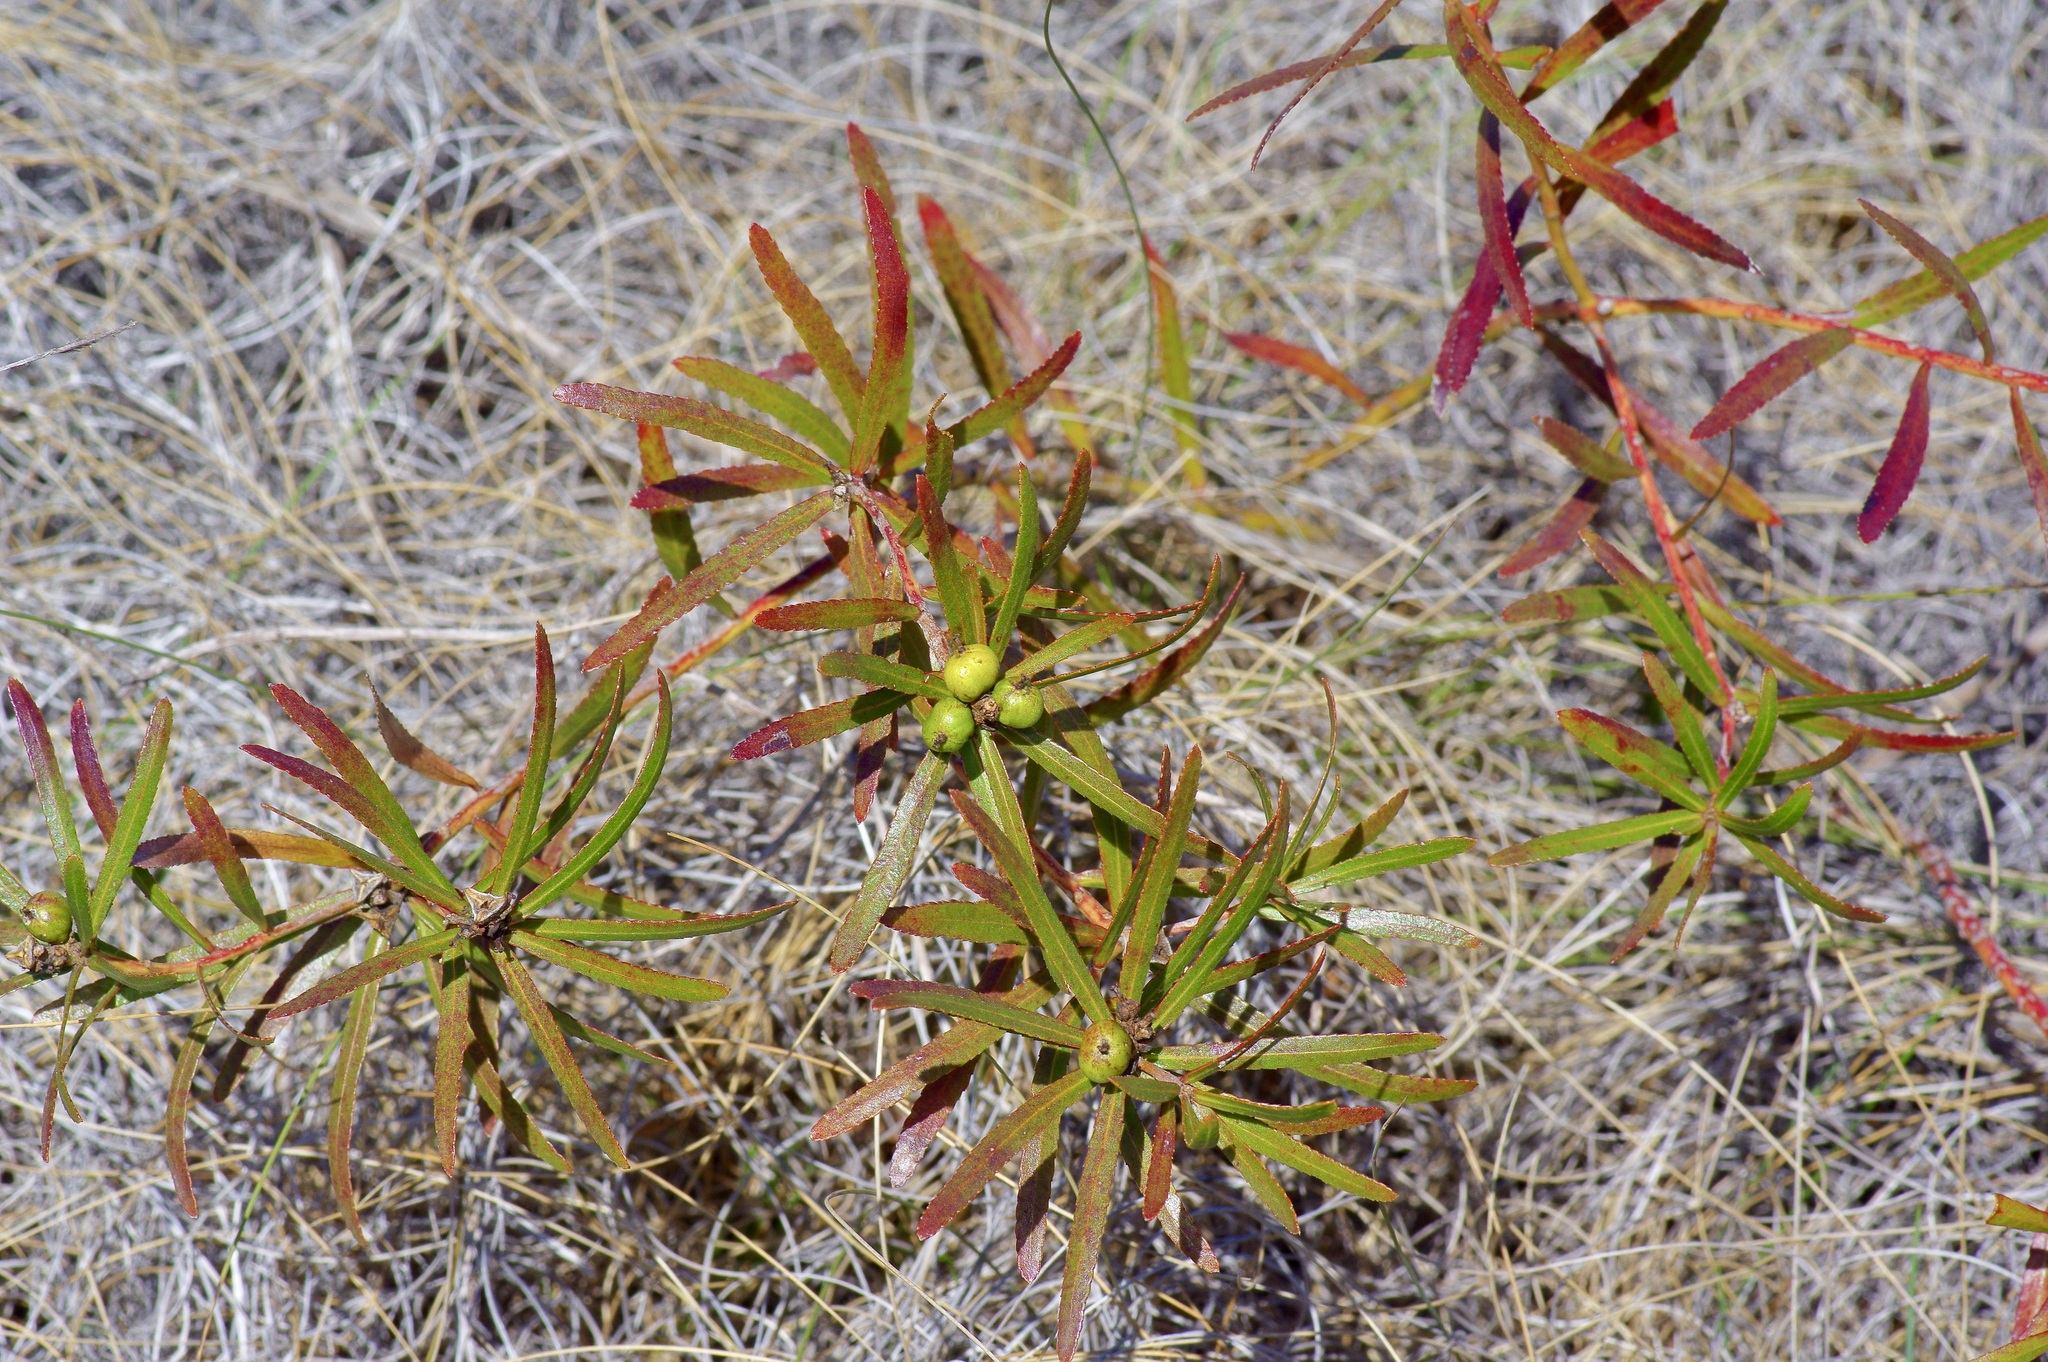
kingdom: Plantae
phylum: Tracheophyta
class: Magnoliopsida
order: Malpighiales
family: Euphorbiaceae
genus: Stillingia
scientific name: Stillingia texana
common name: Texas stillingia
